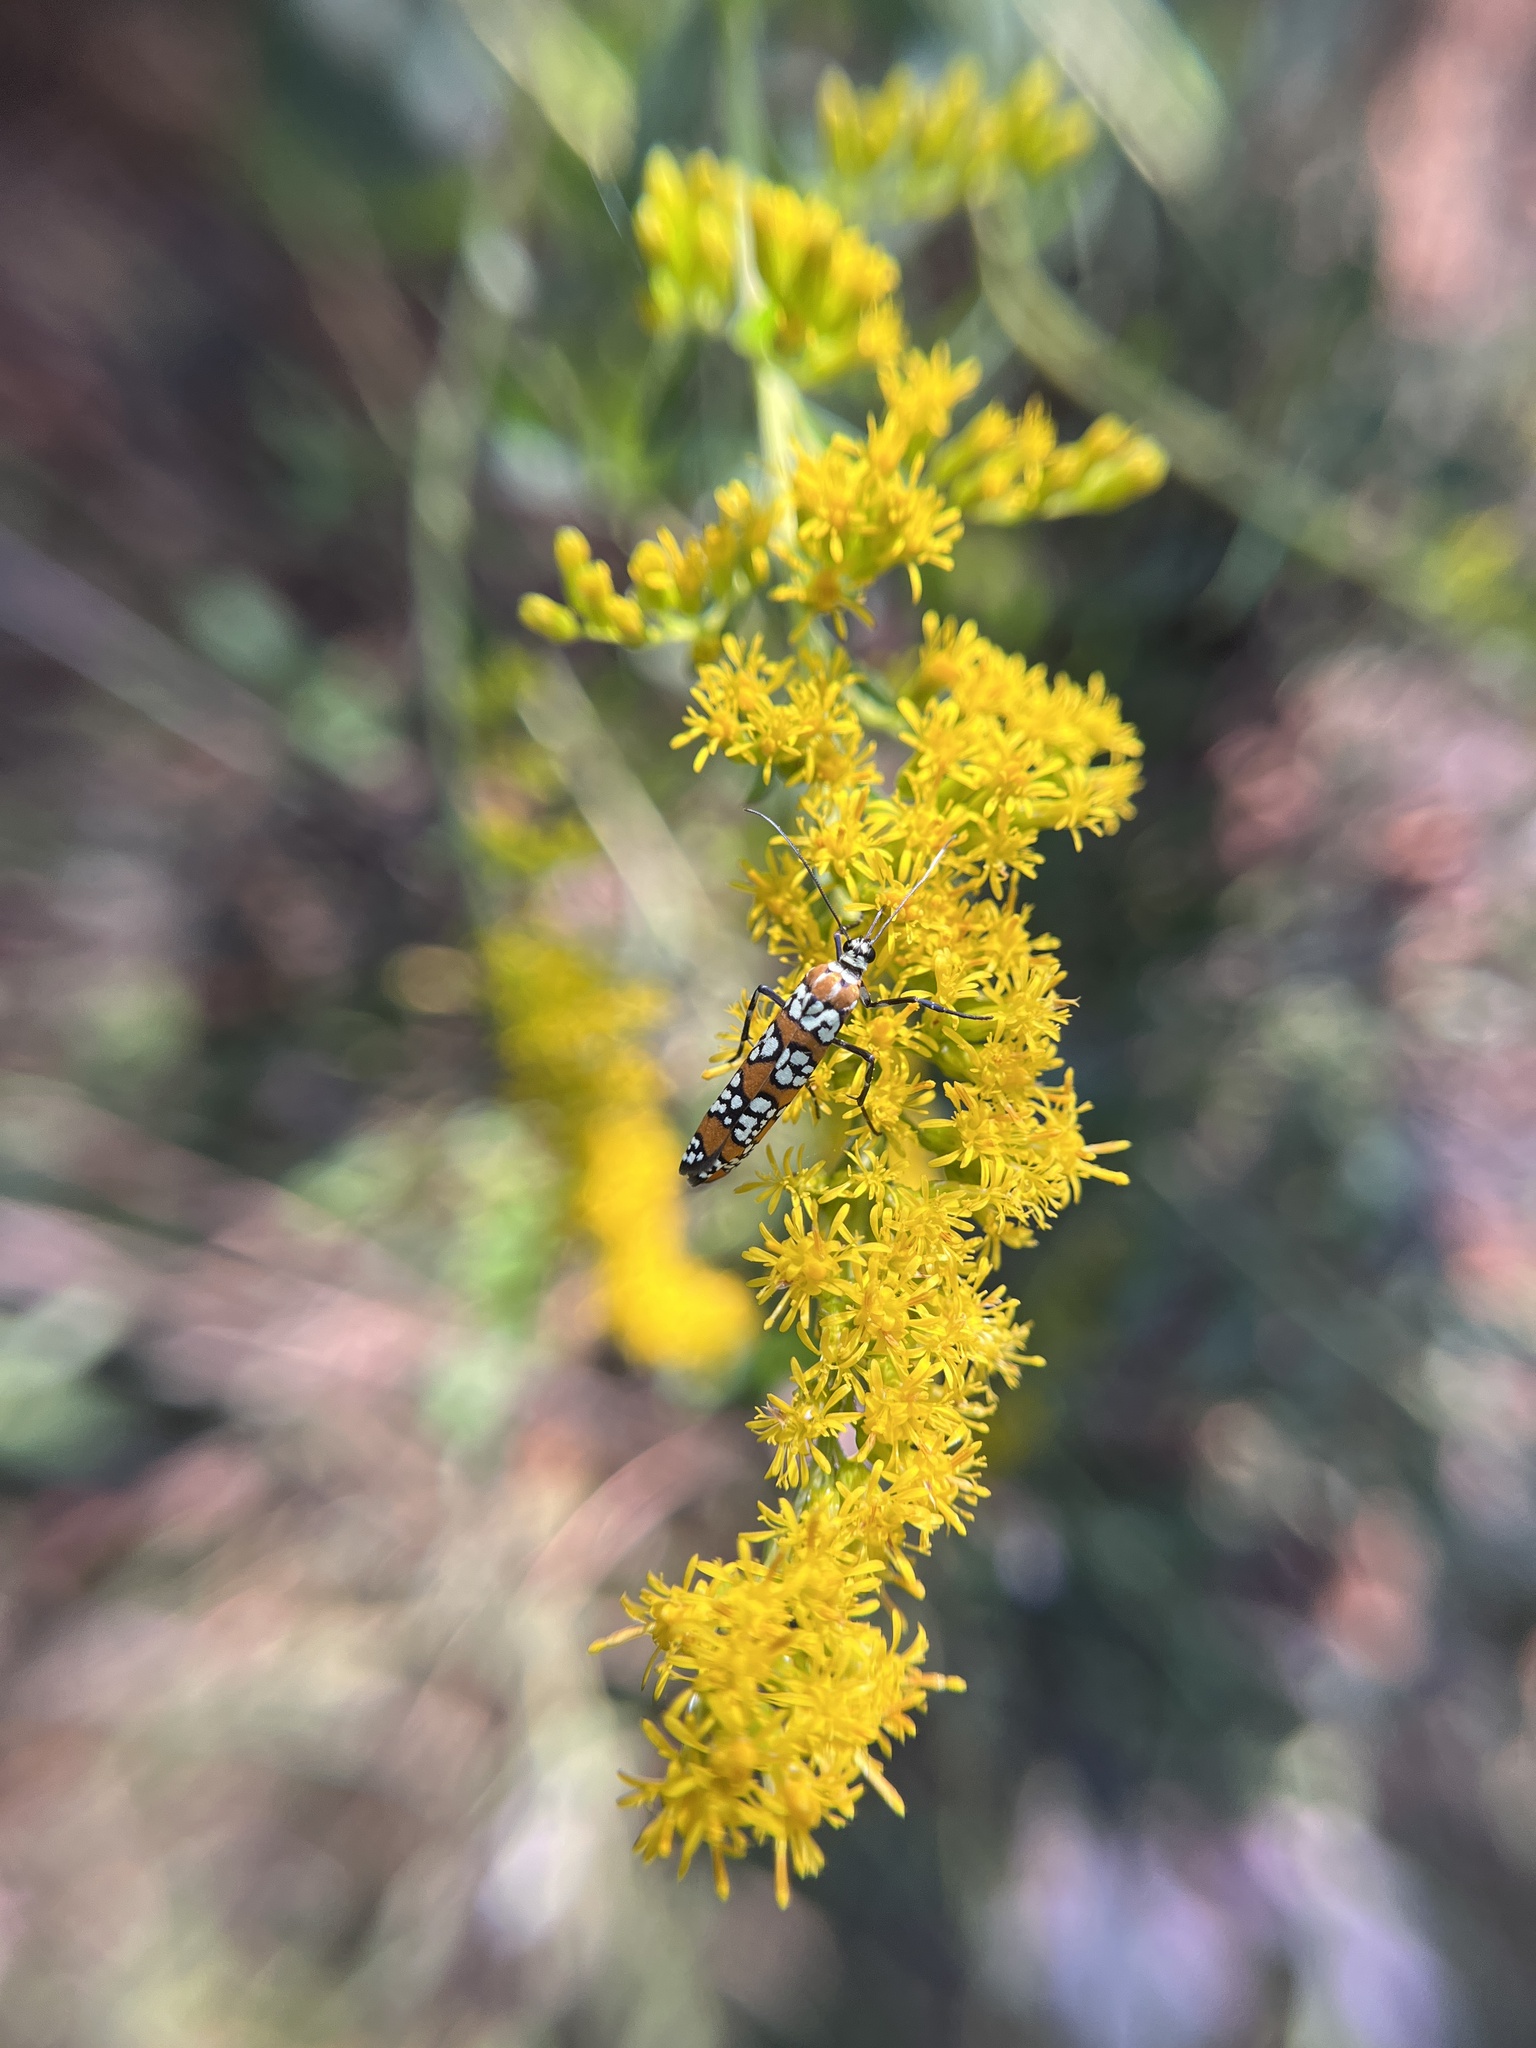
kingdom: Animalia
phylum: Arthropoda
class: Insecta
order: Lepidoptera
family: Attevidae
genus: Atteva
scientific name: Atteva punctella
